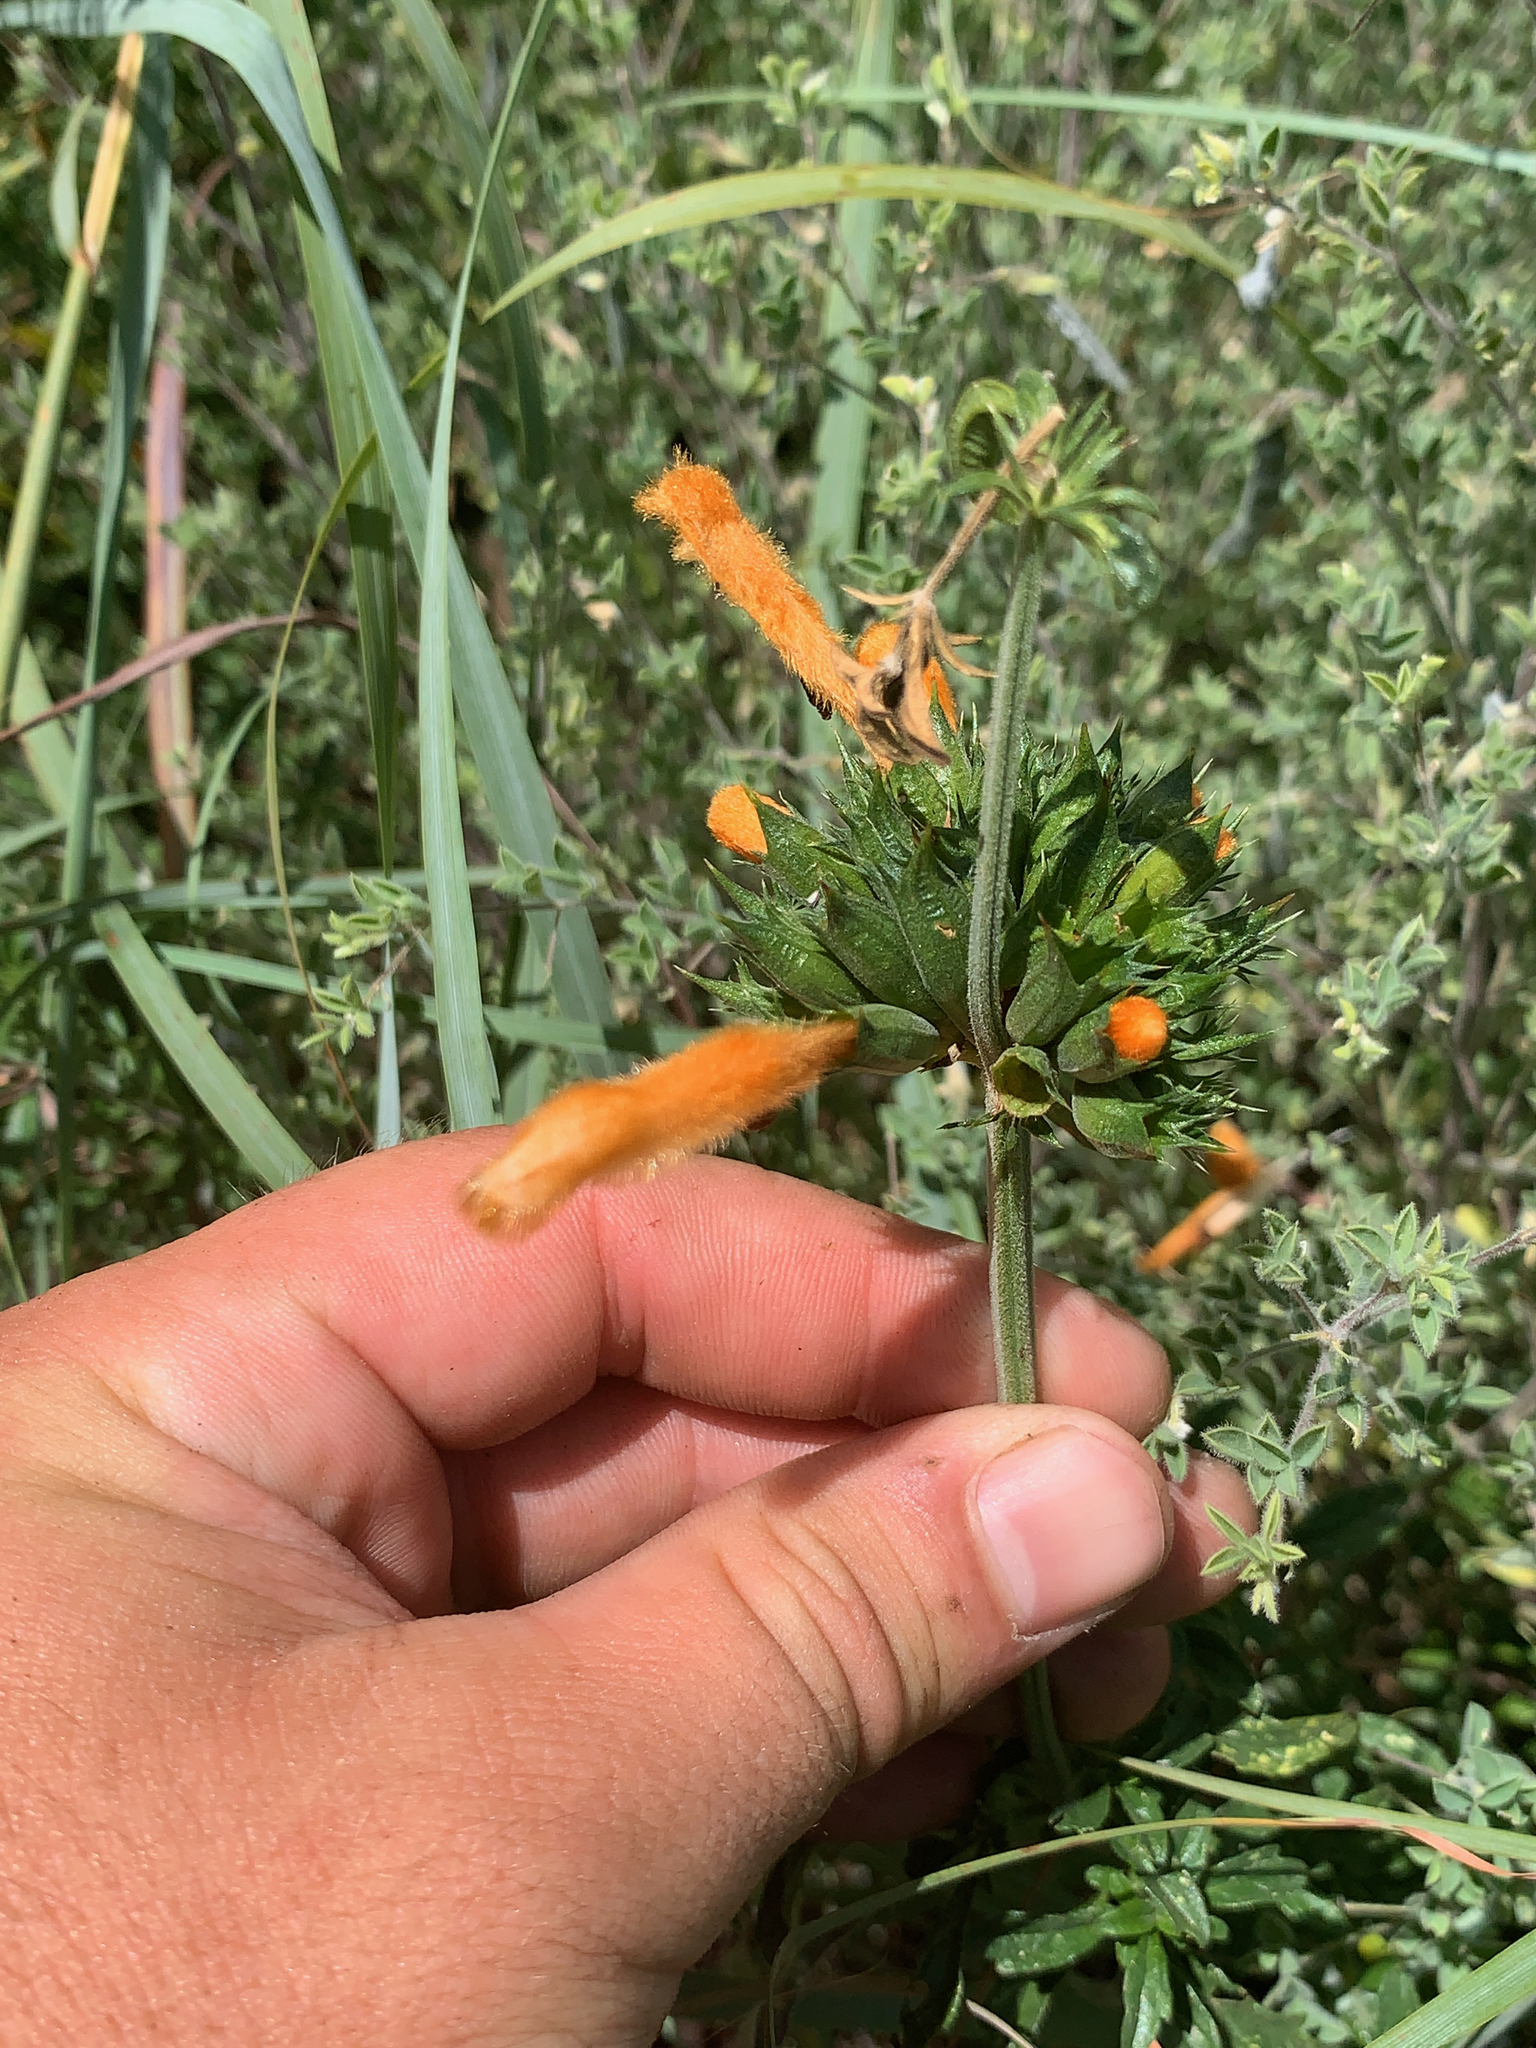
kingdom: Plantae
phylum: Tracheophyta
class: Magnoliopsida
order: Lamiales
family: Lamiaceae
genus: Leonotis
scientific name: Leonotis ocymifolia
